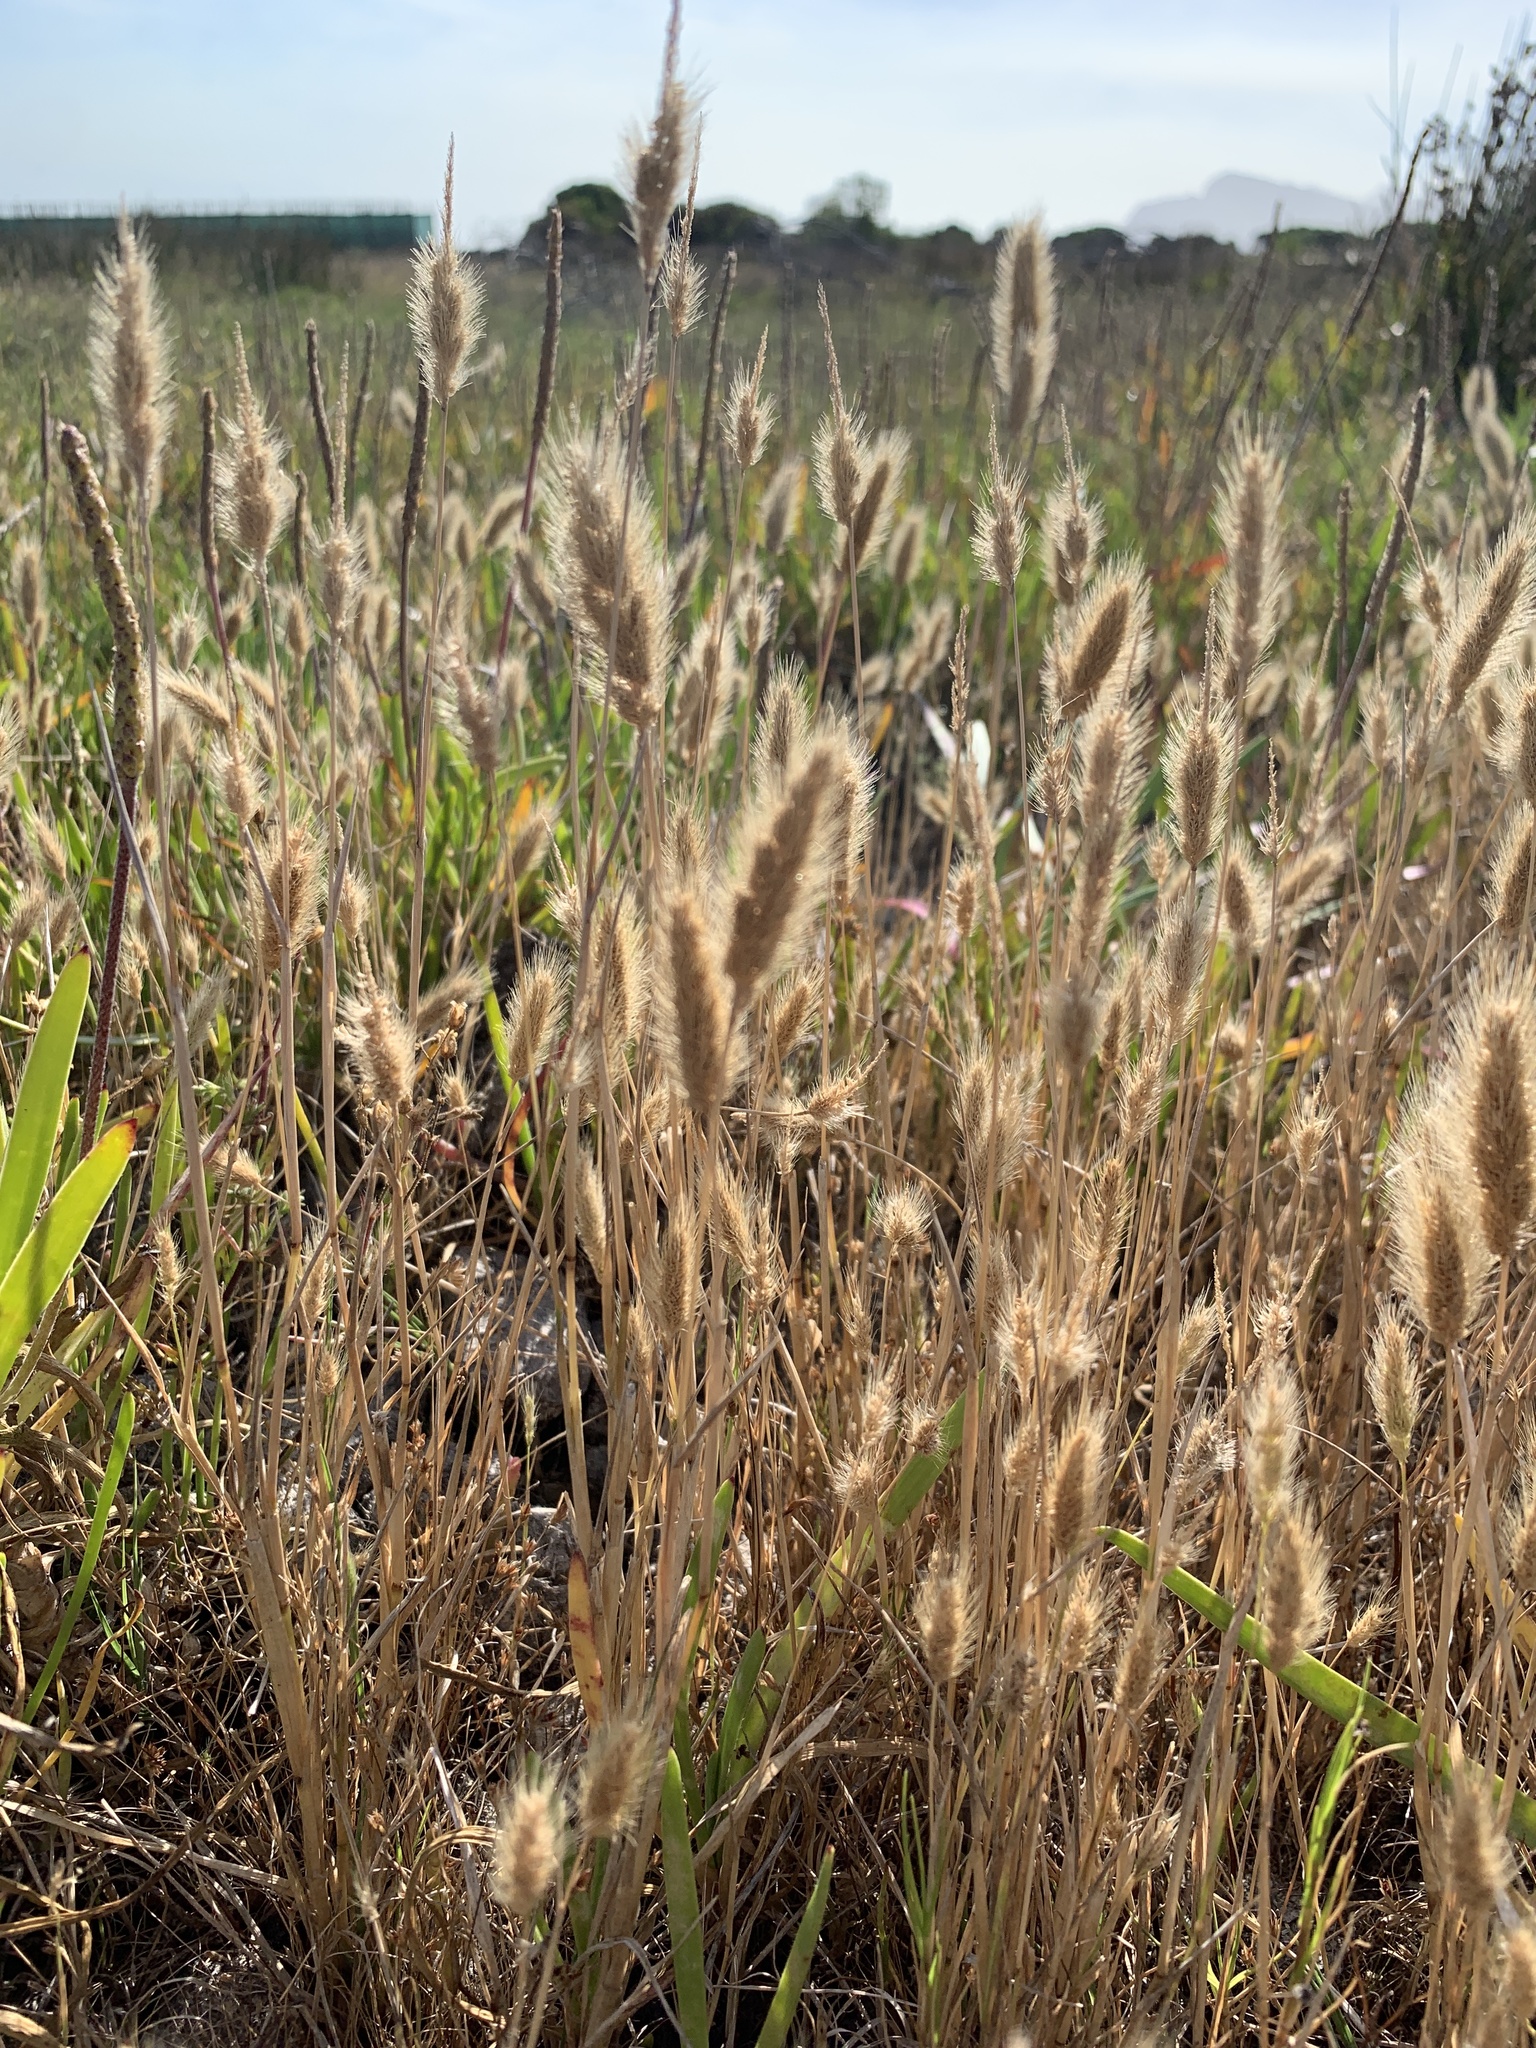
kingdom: Plantae
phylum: Tracheophyta
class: Liliopsida
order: Poales
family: Poaceae
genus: Polypogon
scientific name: Polypogon monspeliensis
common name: Annual rabbitsfoot grass
